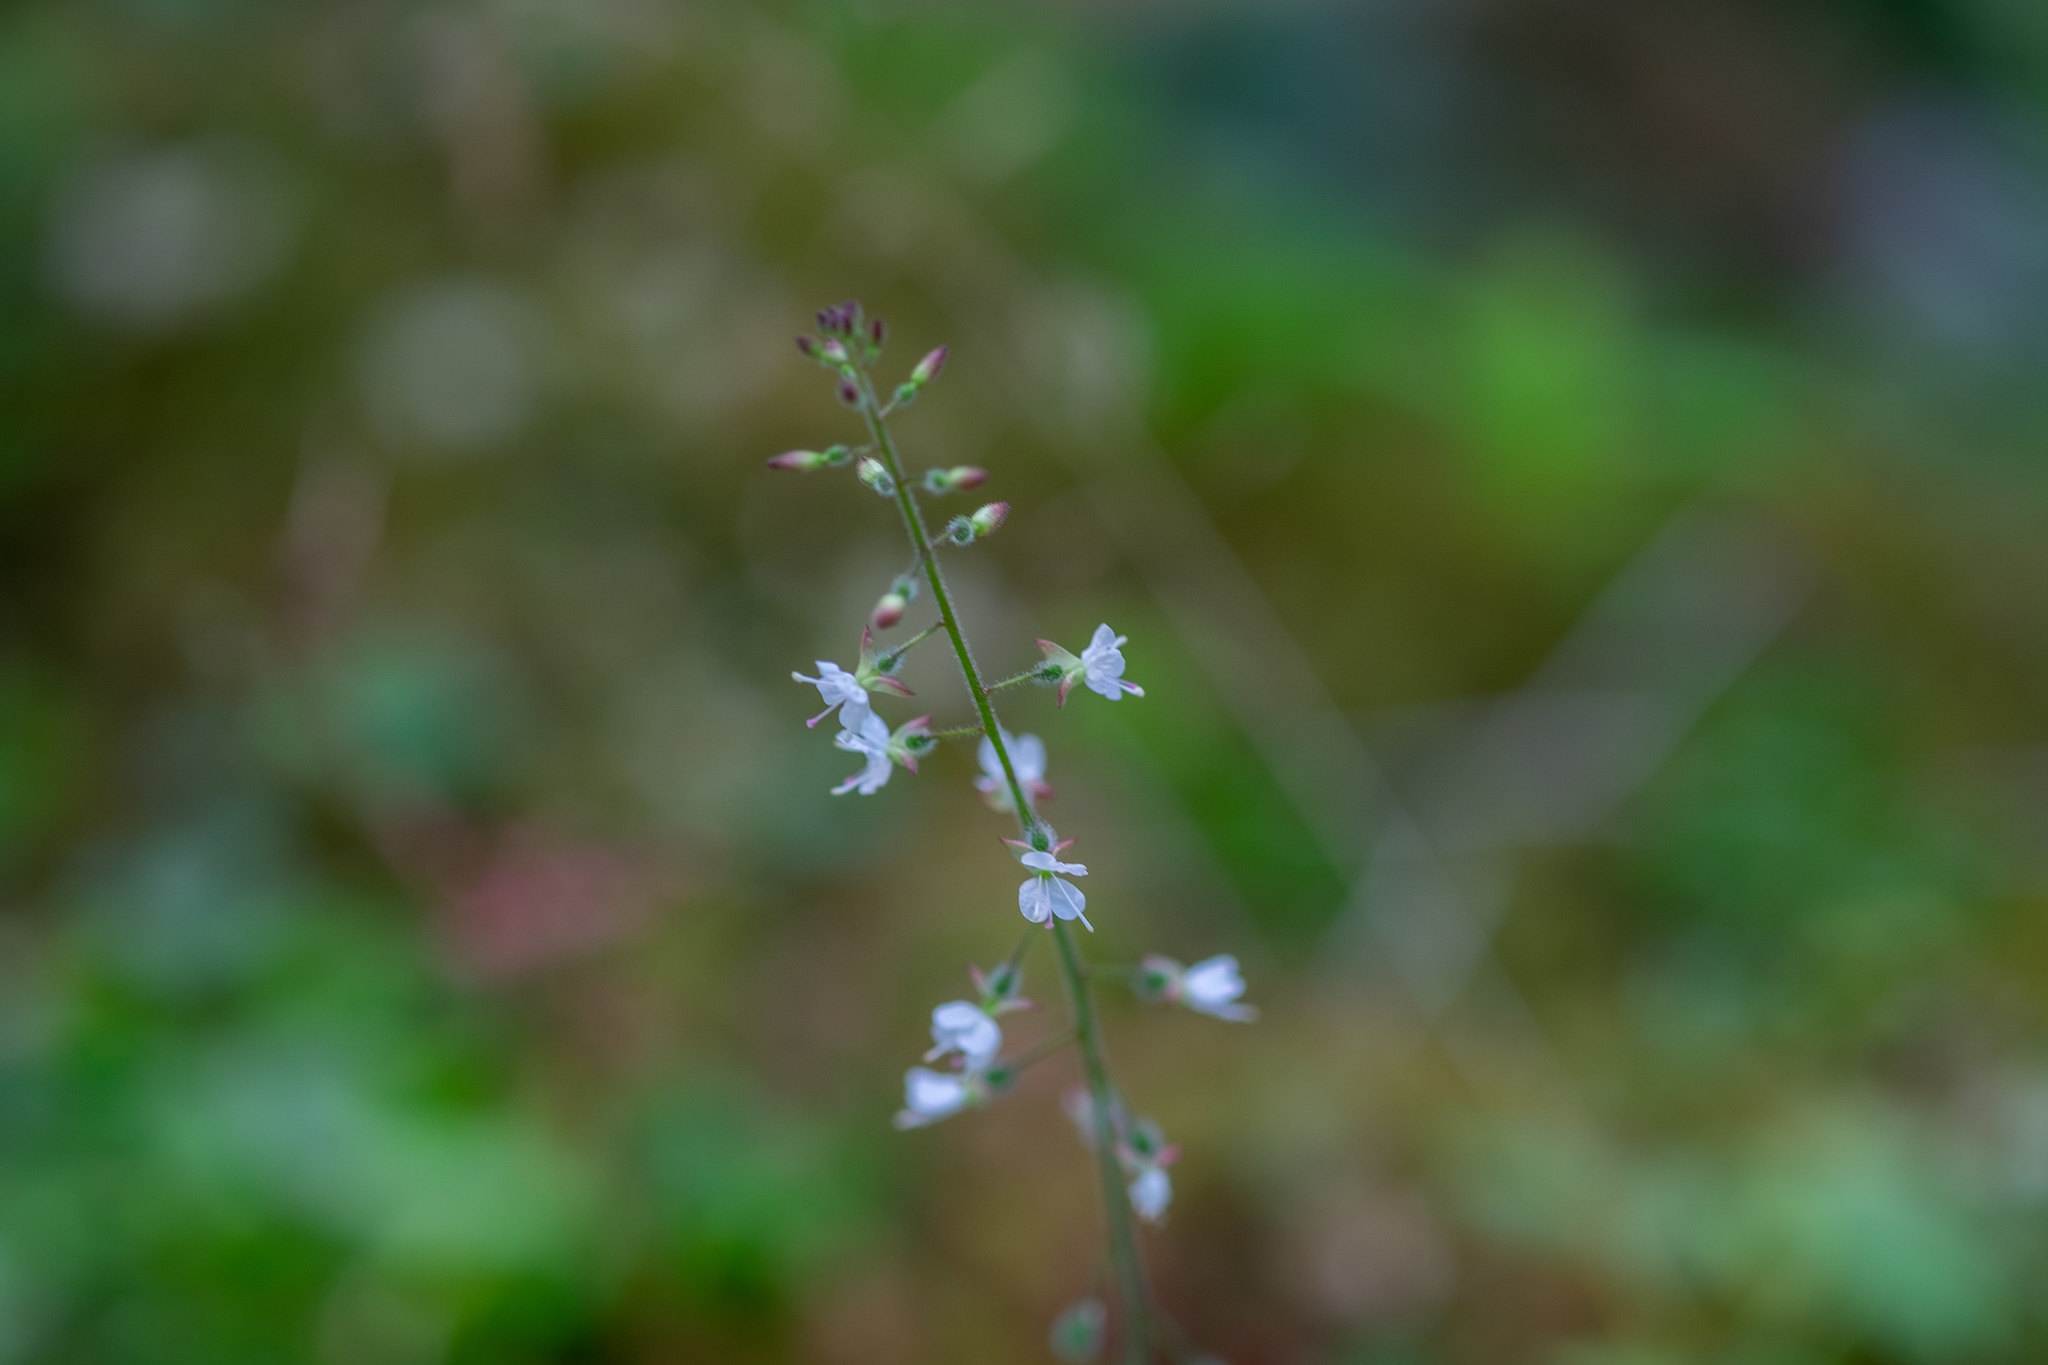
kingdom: Plantae
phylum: Tracheophyta
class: Magnoliopsida
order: Myrtales
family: Onagraceae
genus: Circaea
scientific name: Circaea lutetiana
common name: Enchanter's-nightshade
